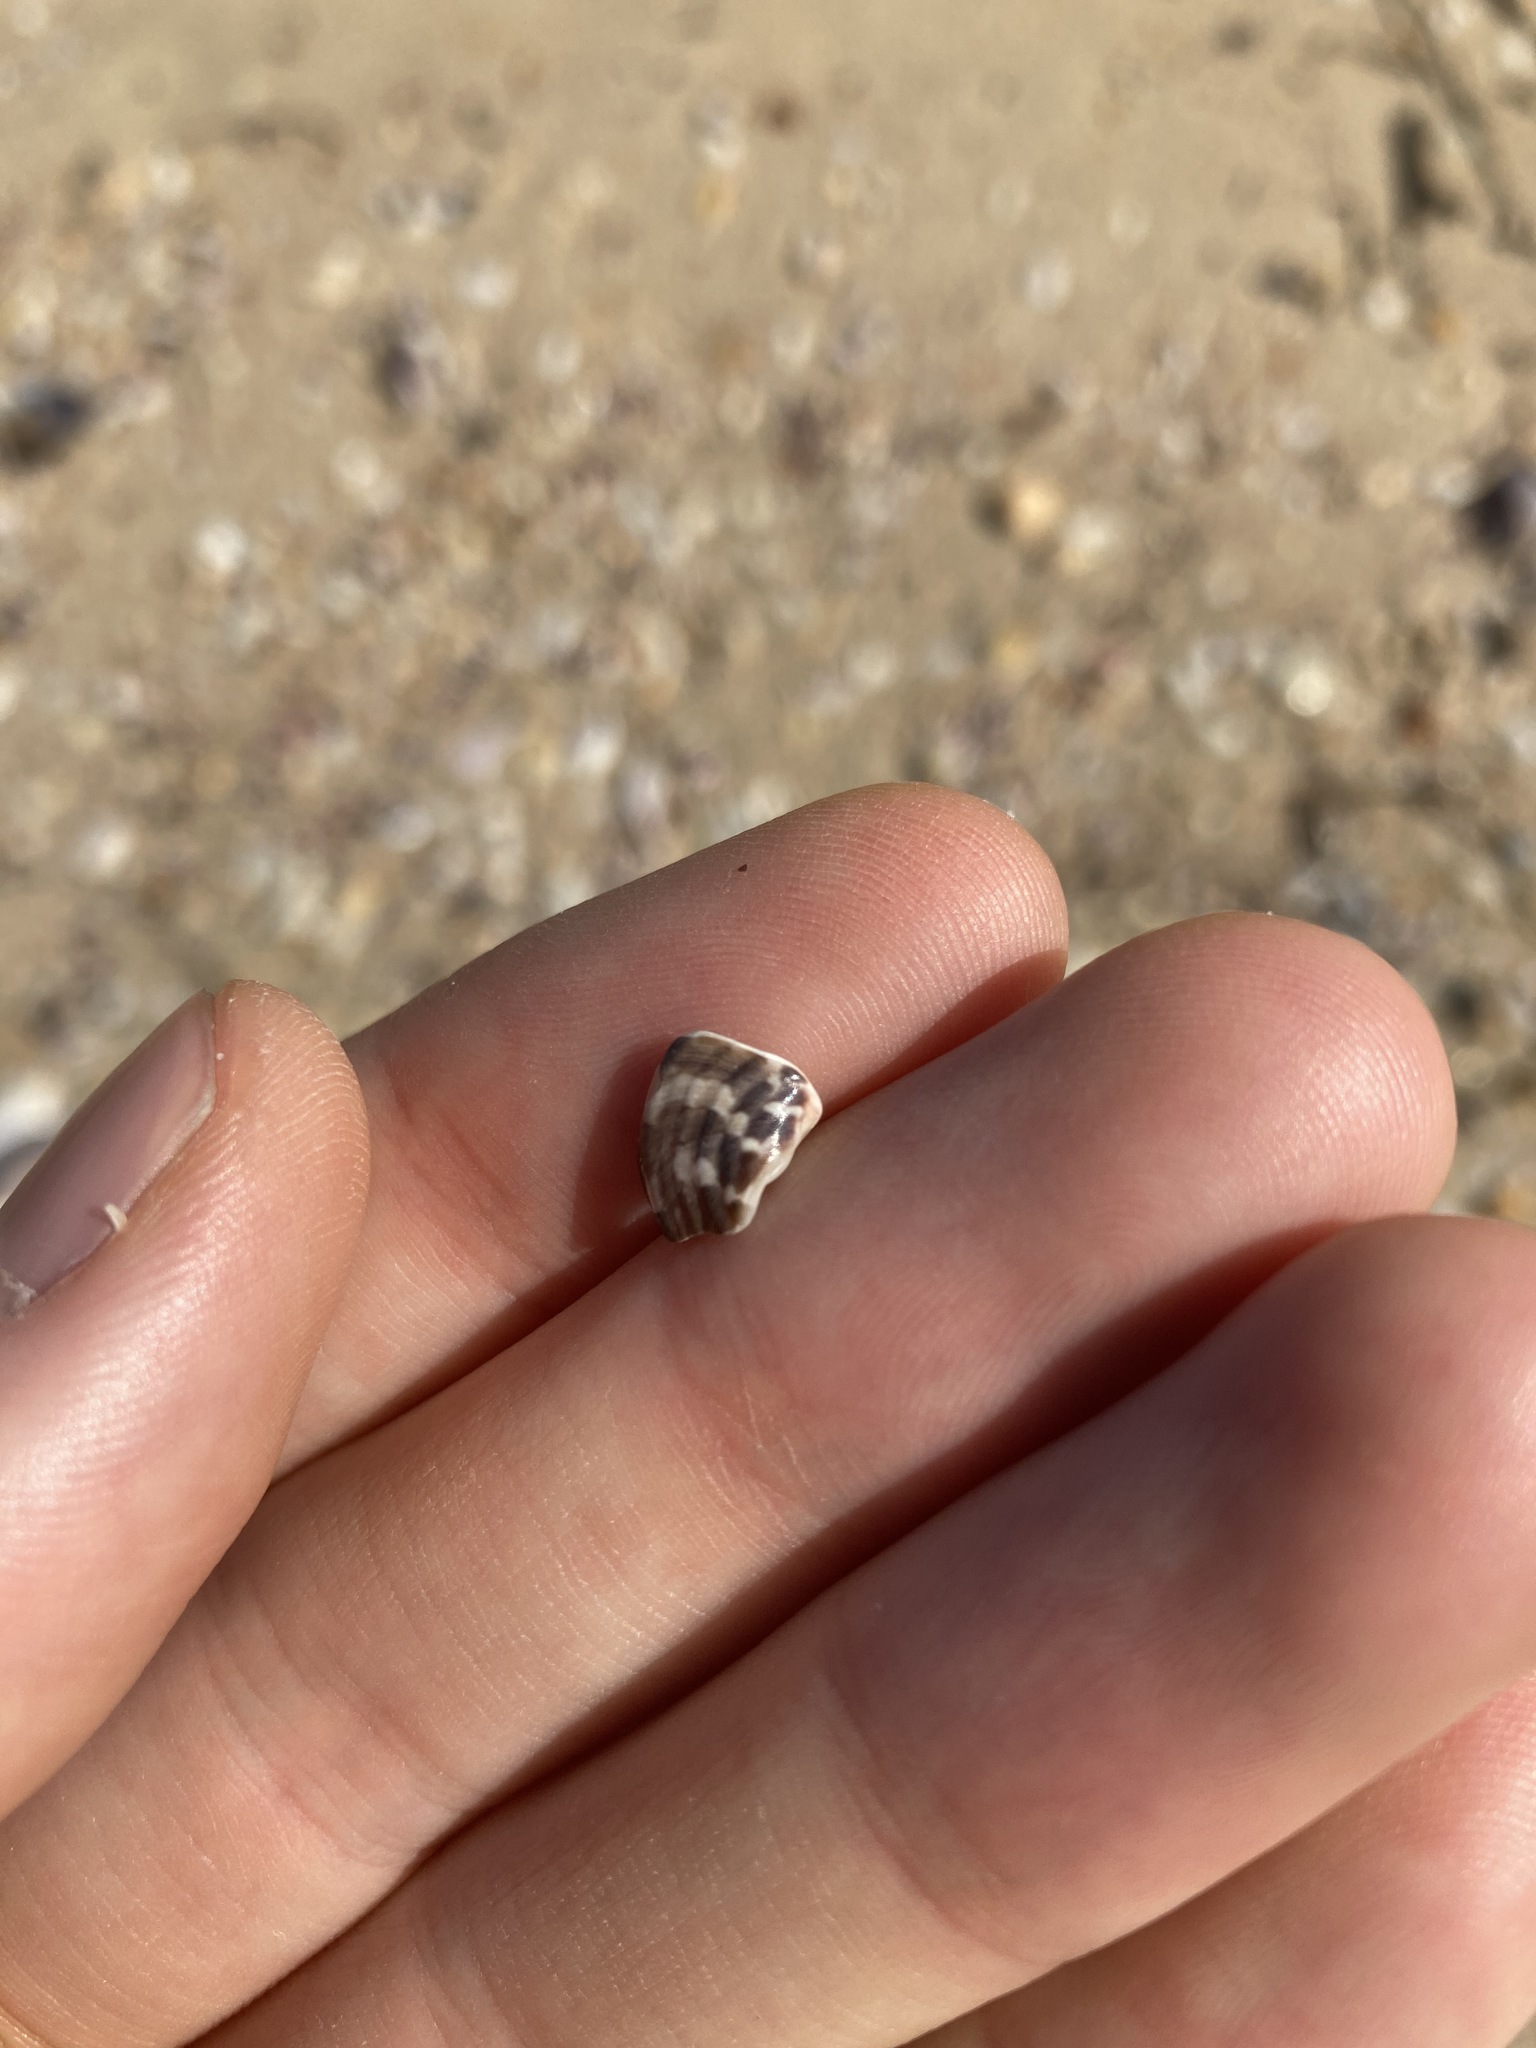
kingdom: Animalia
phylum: Mollusca
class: Gastropoda
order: Trochida
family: Trochidae
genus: Austrocochlea
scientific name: Austrocochlea porcata
